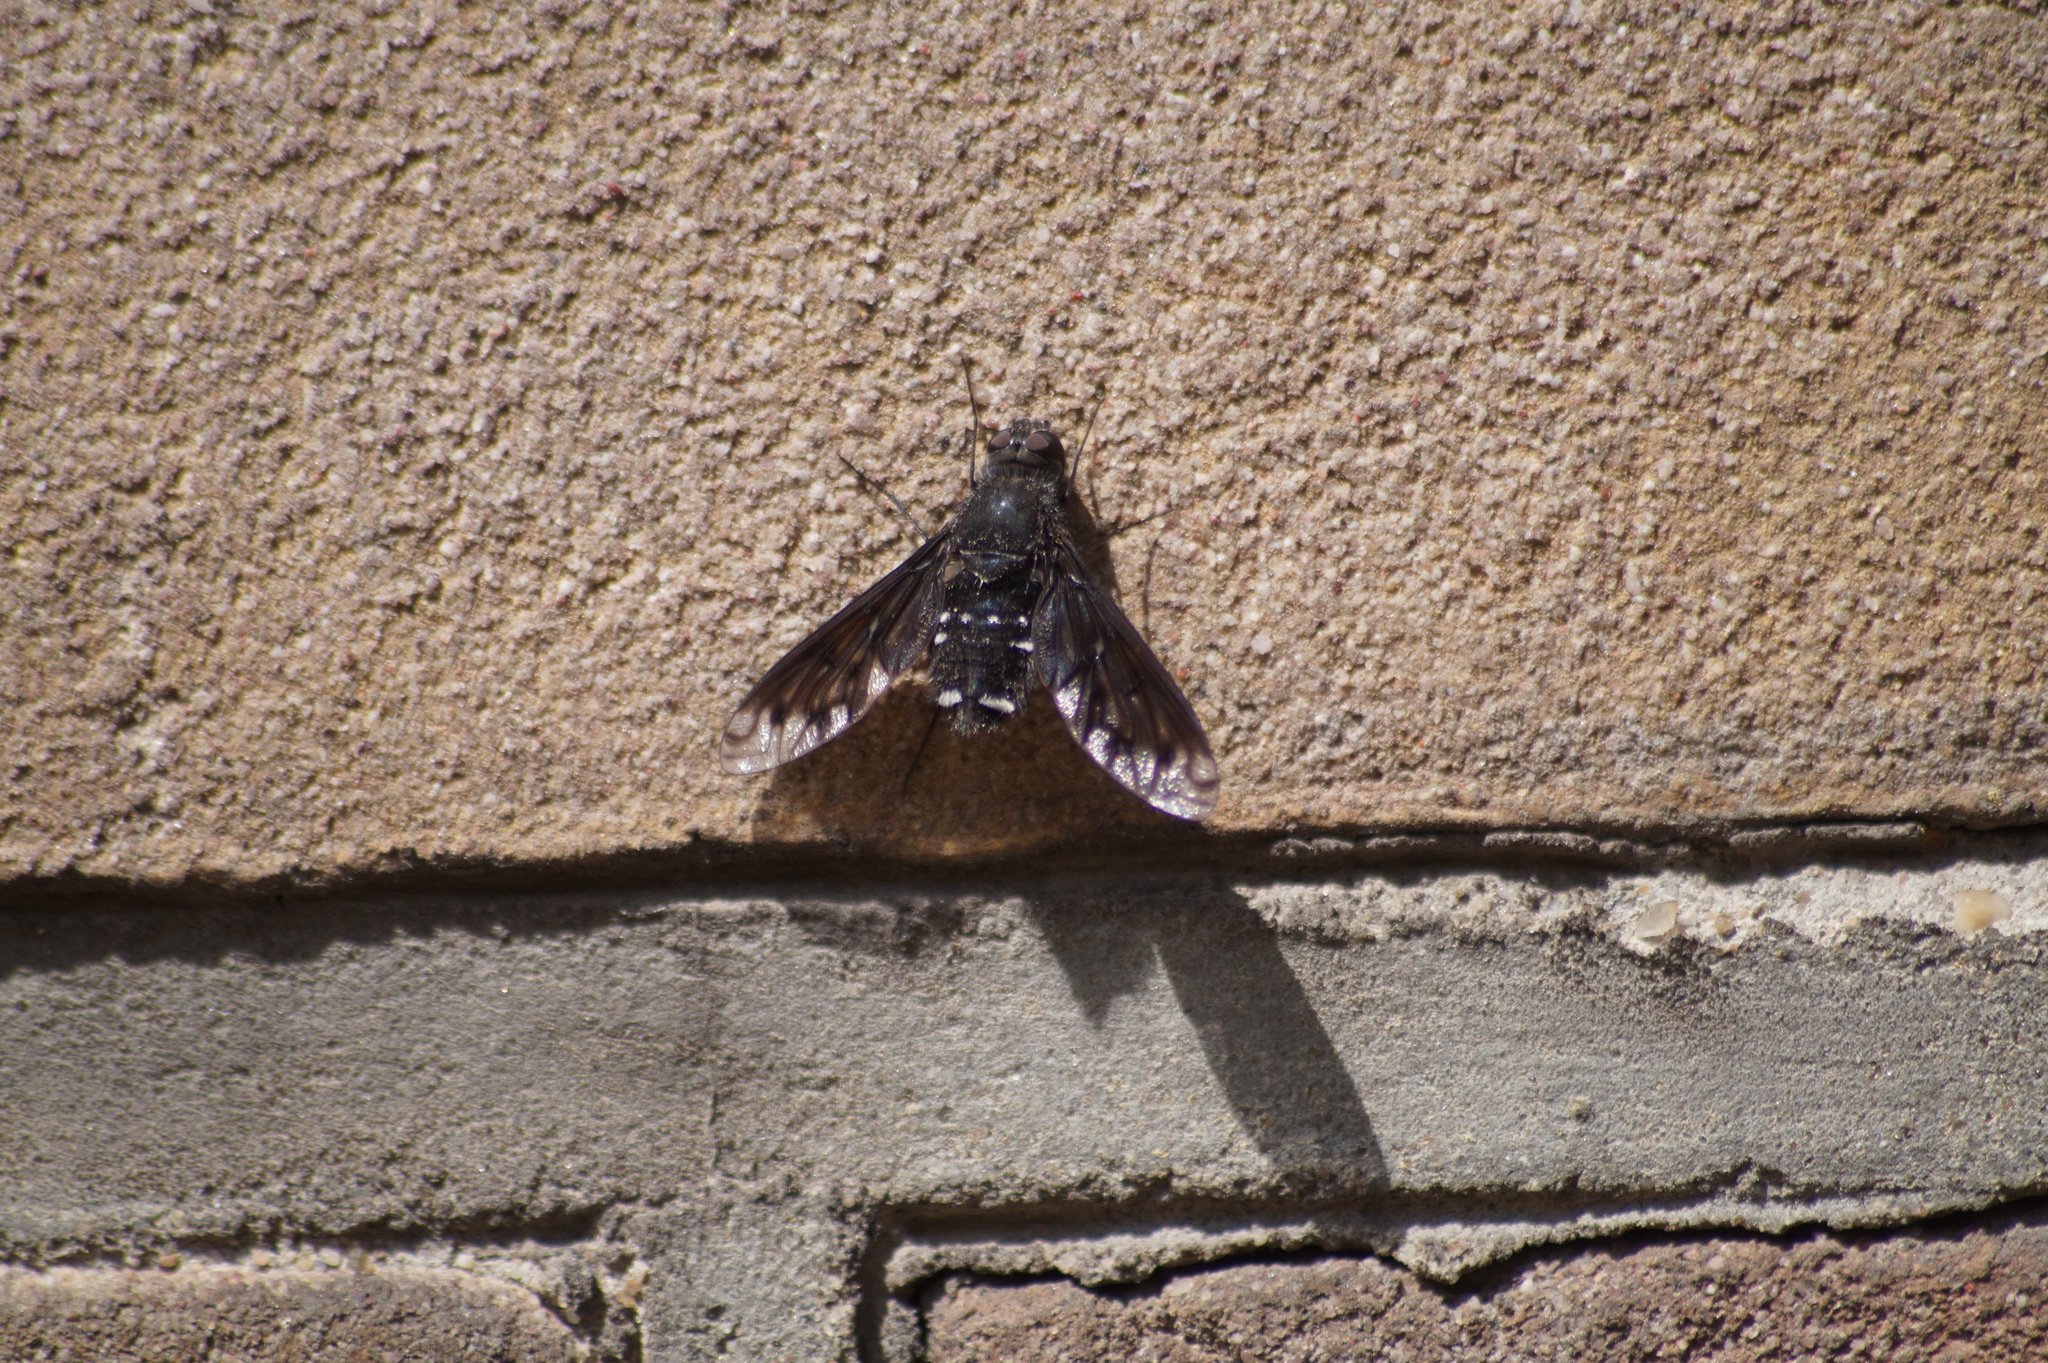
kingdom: Animalia
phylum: Arthropoda
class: Insecta
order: Diptera
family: Bombyliidae
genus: Anthrax
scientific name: Anthrax anthrax
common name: Anthracite bee-fly
